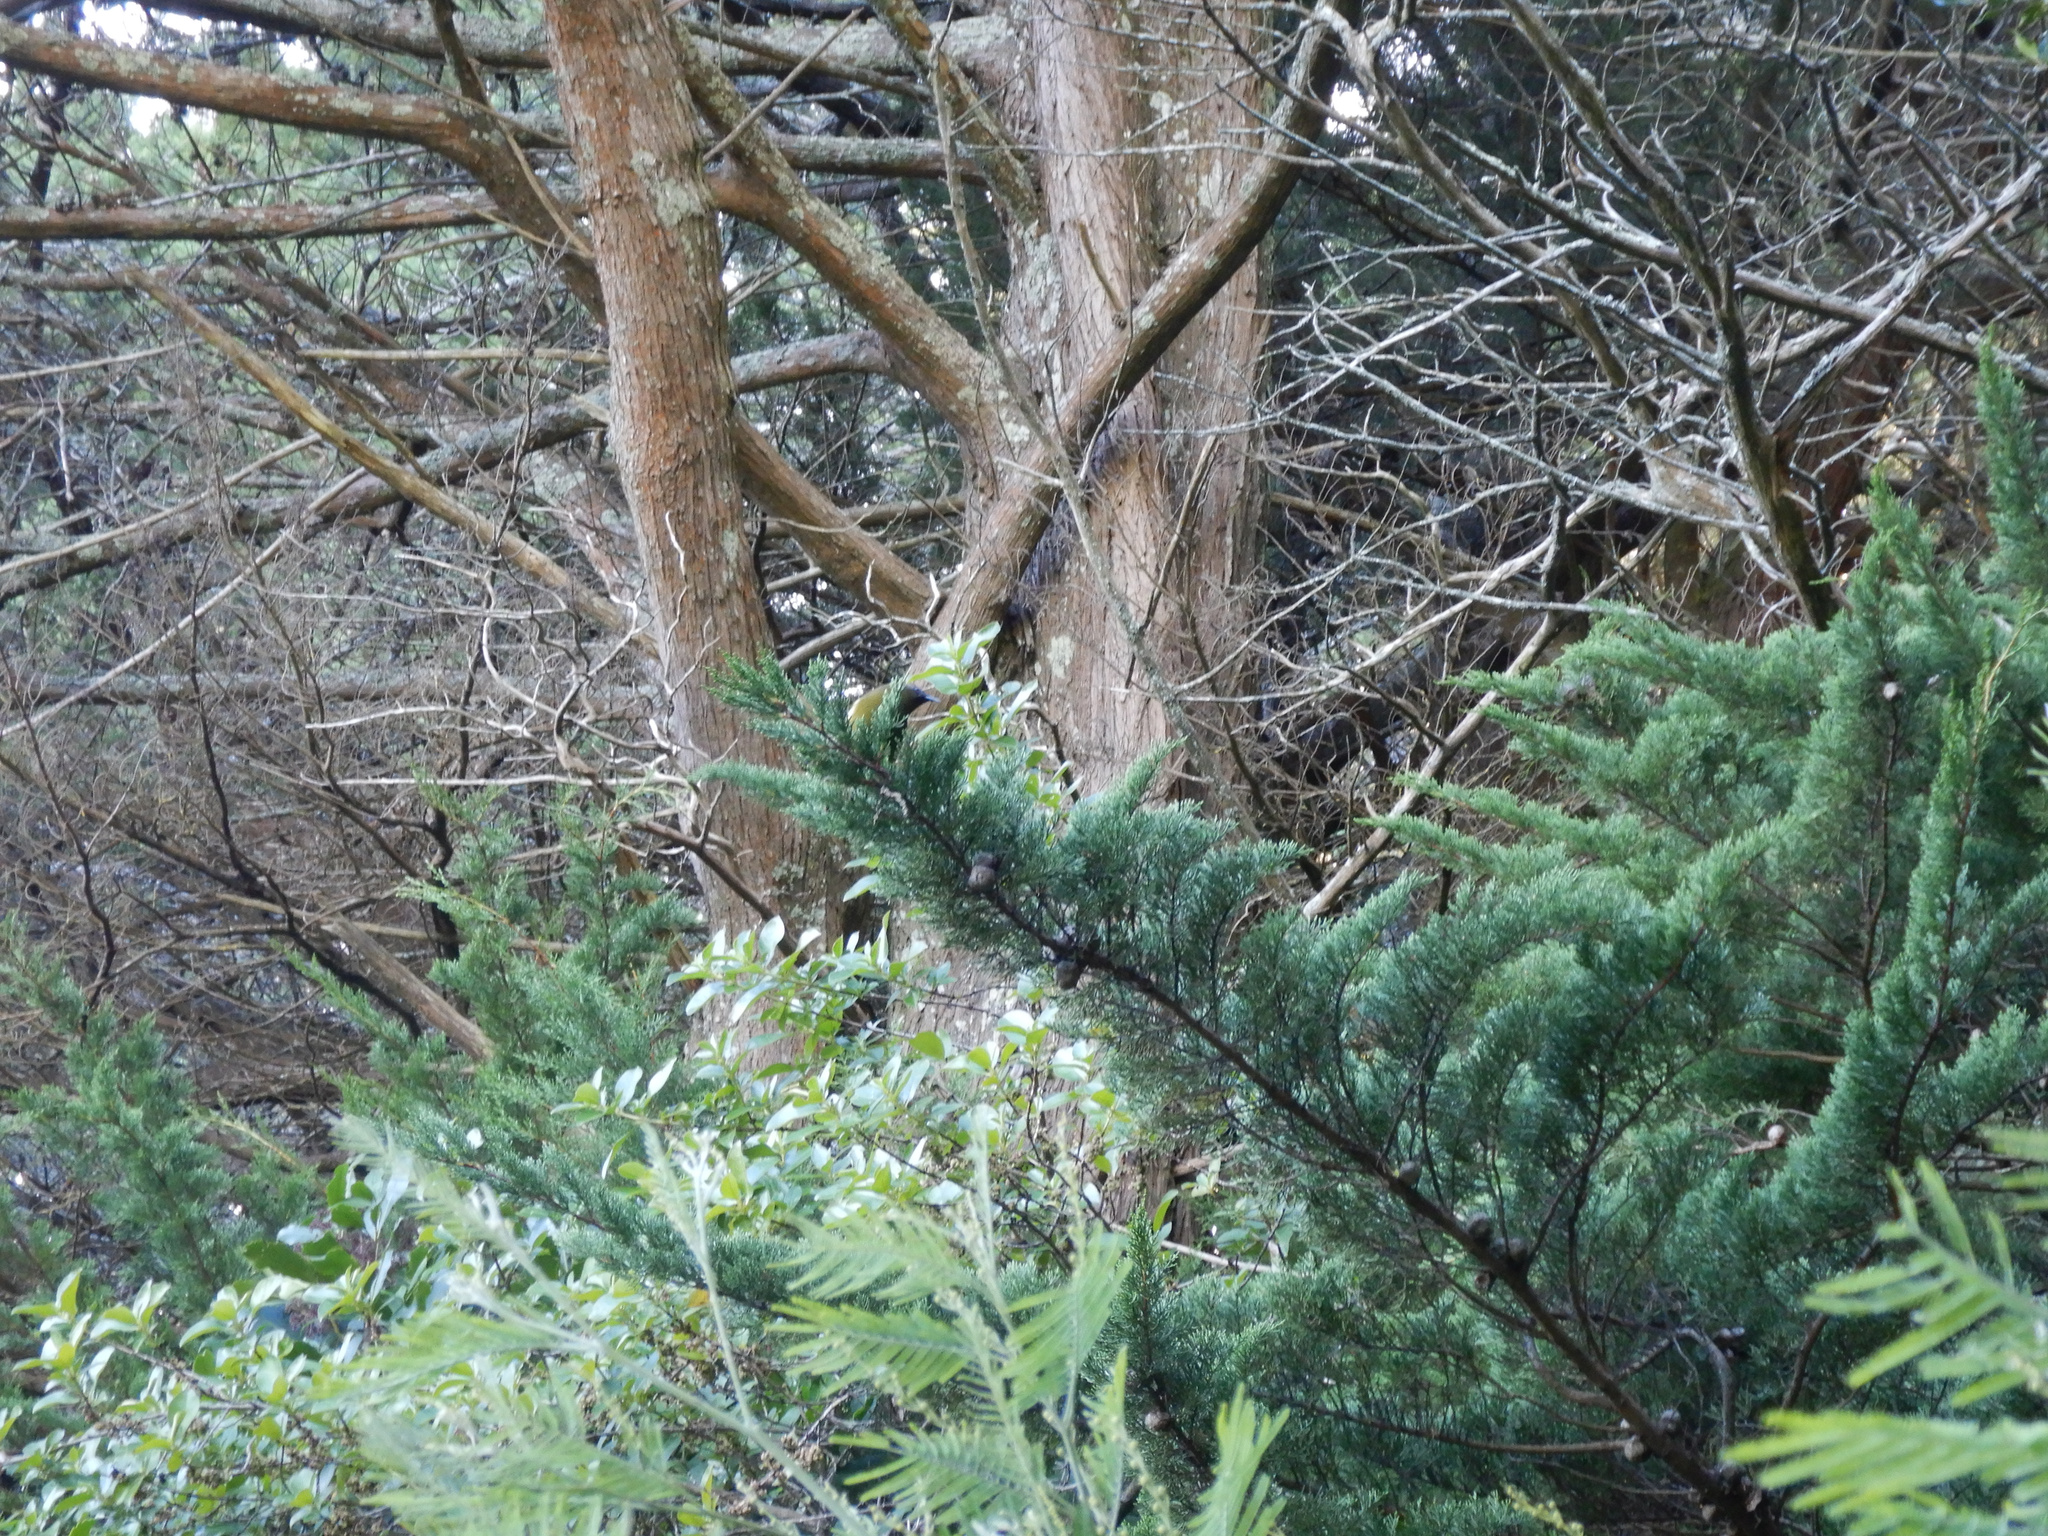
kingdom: Animalia
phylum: Chordata
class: Aves
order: Passeriformes
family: Meliphagidae
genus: Anthornis
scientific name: Anthornis melanura
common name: New zealand bellbird
